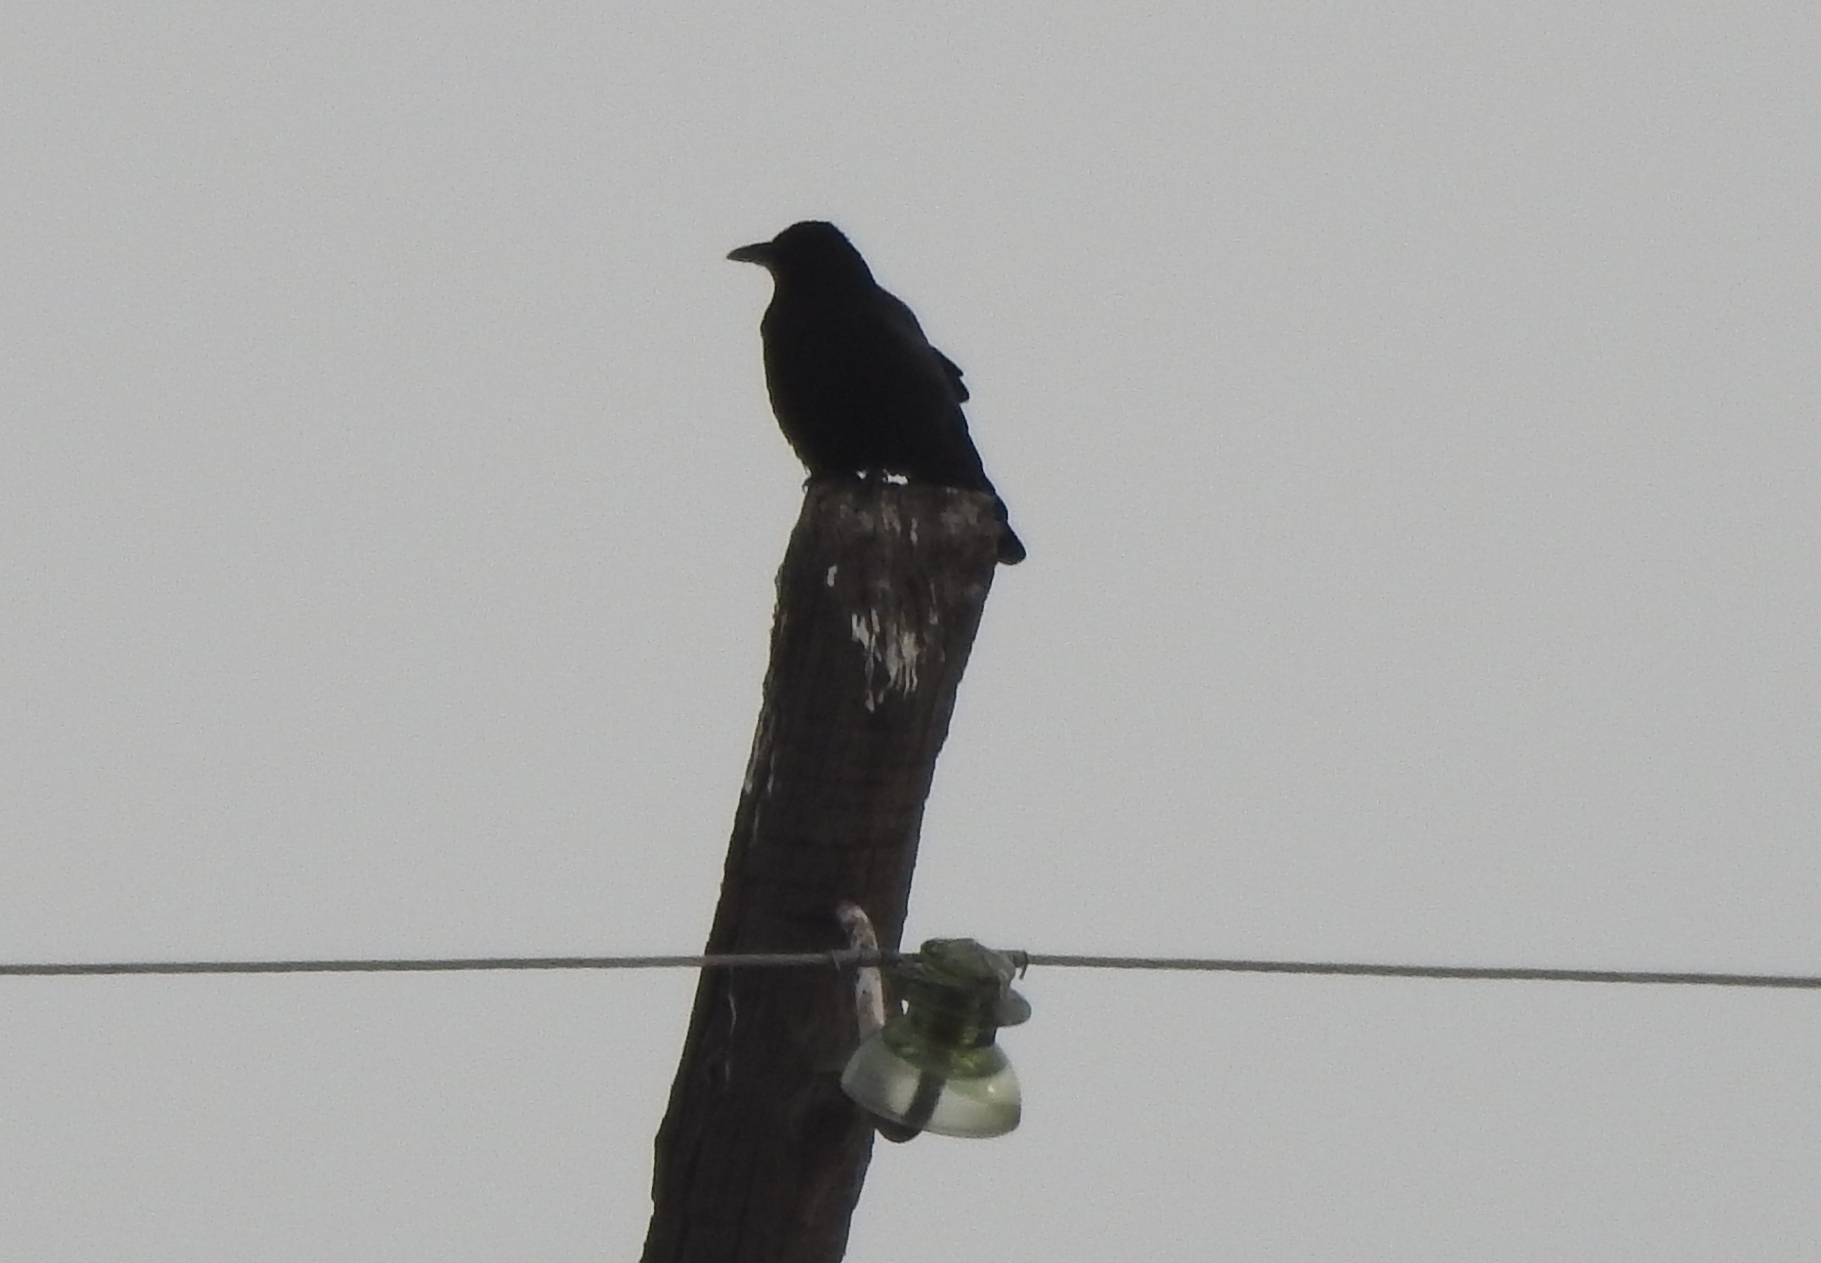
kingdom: Animalia
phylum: Chordata
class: Aves
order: Passeriformes
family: Corvidae
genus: Corvus
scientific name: Corvus corone
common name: Carrion crow
